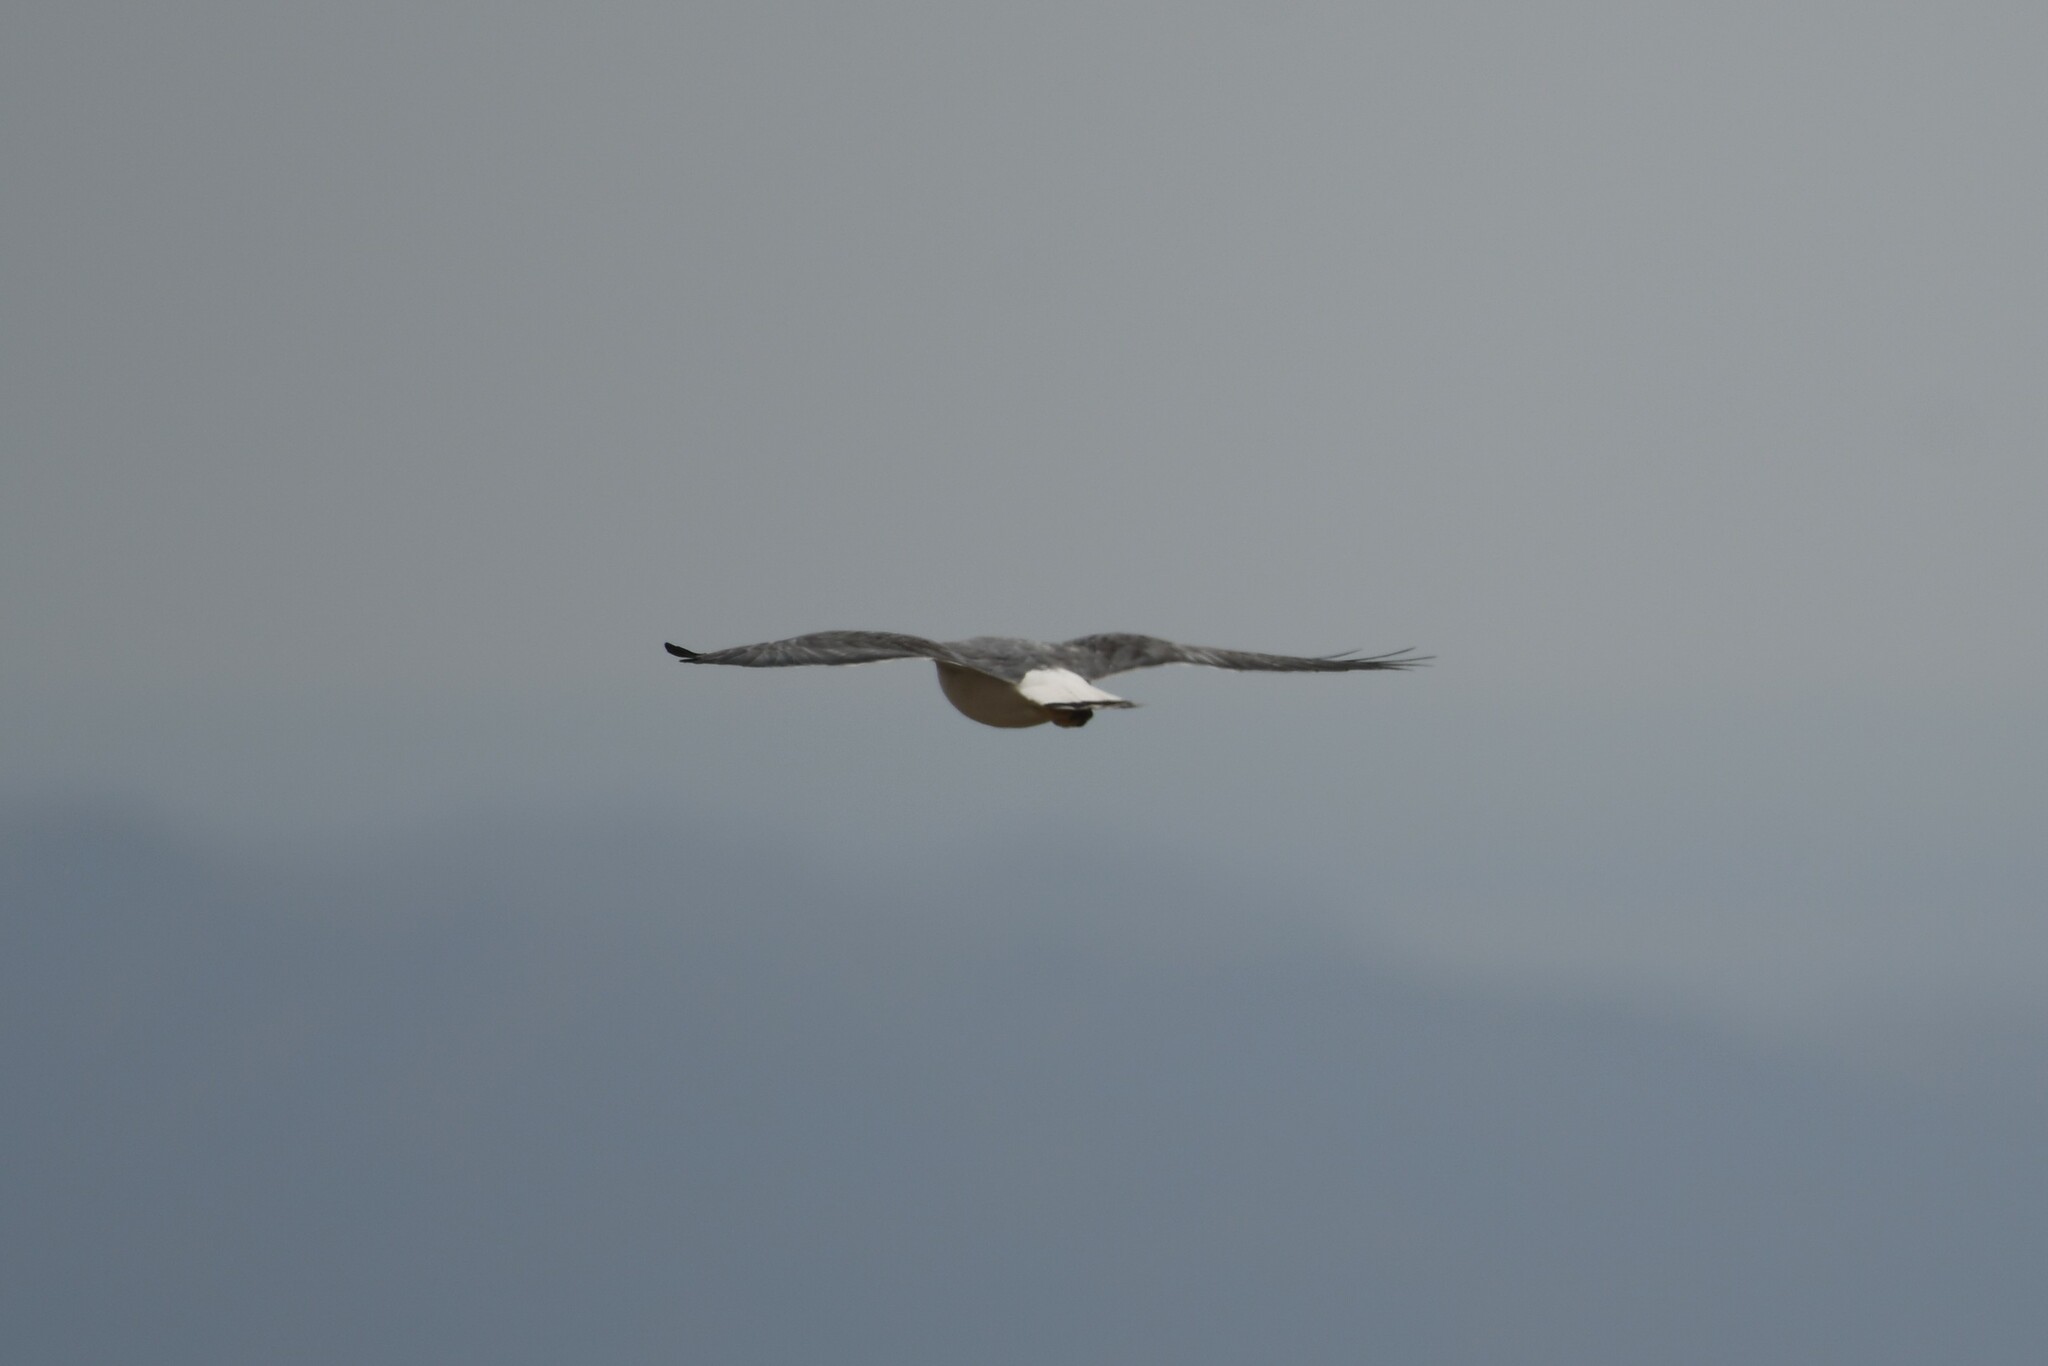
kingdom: Animalia
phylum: Chordata
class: Aves
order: Accipitriformes
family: Accipitridae
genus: Buteo
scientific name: Buteo polyosoma
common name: Variable hawk
